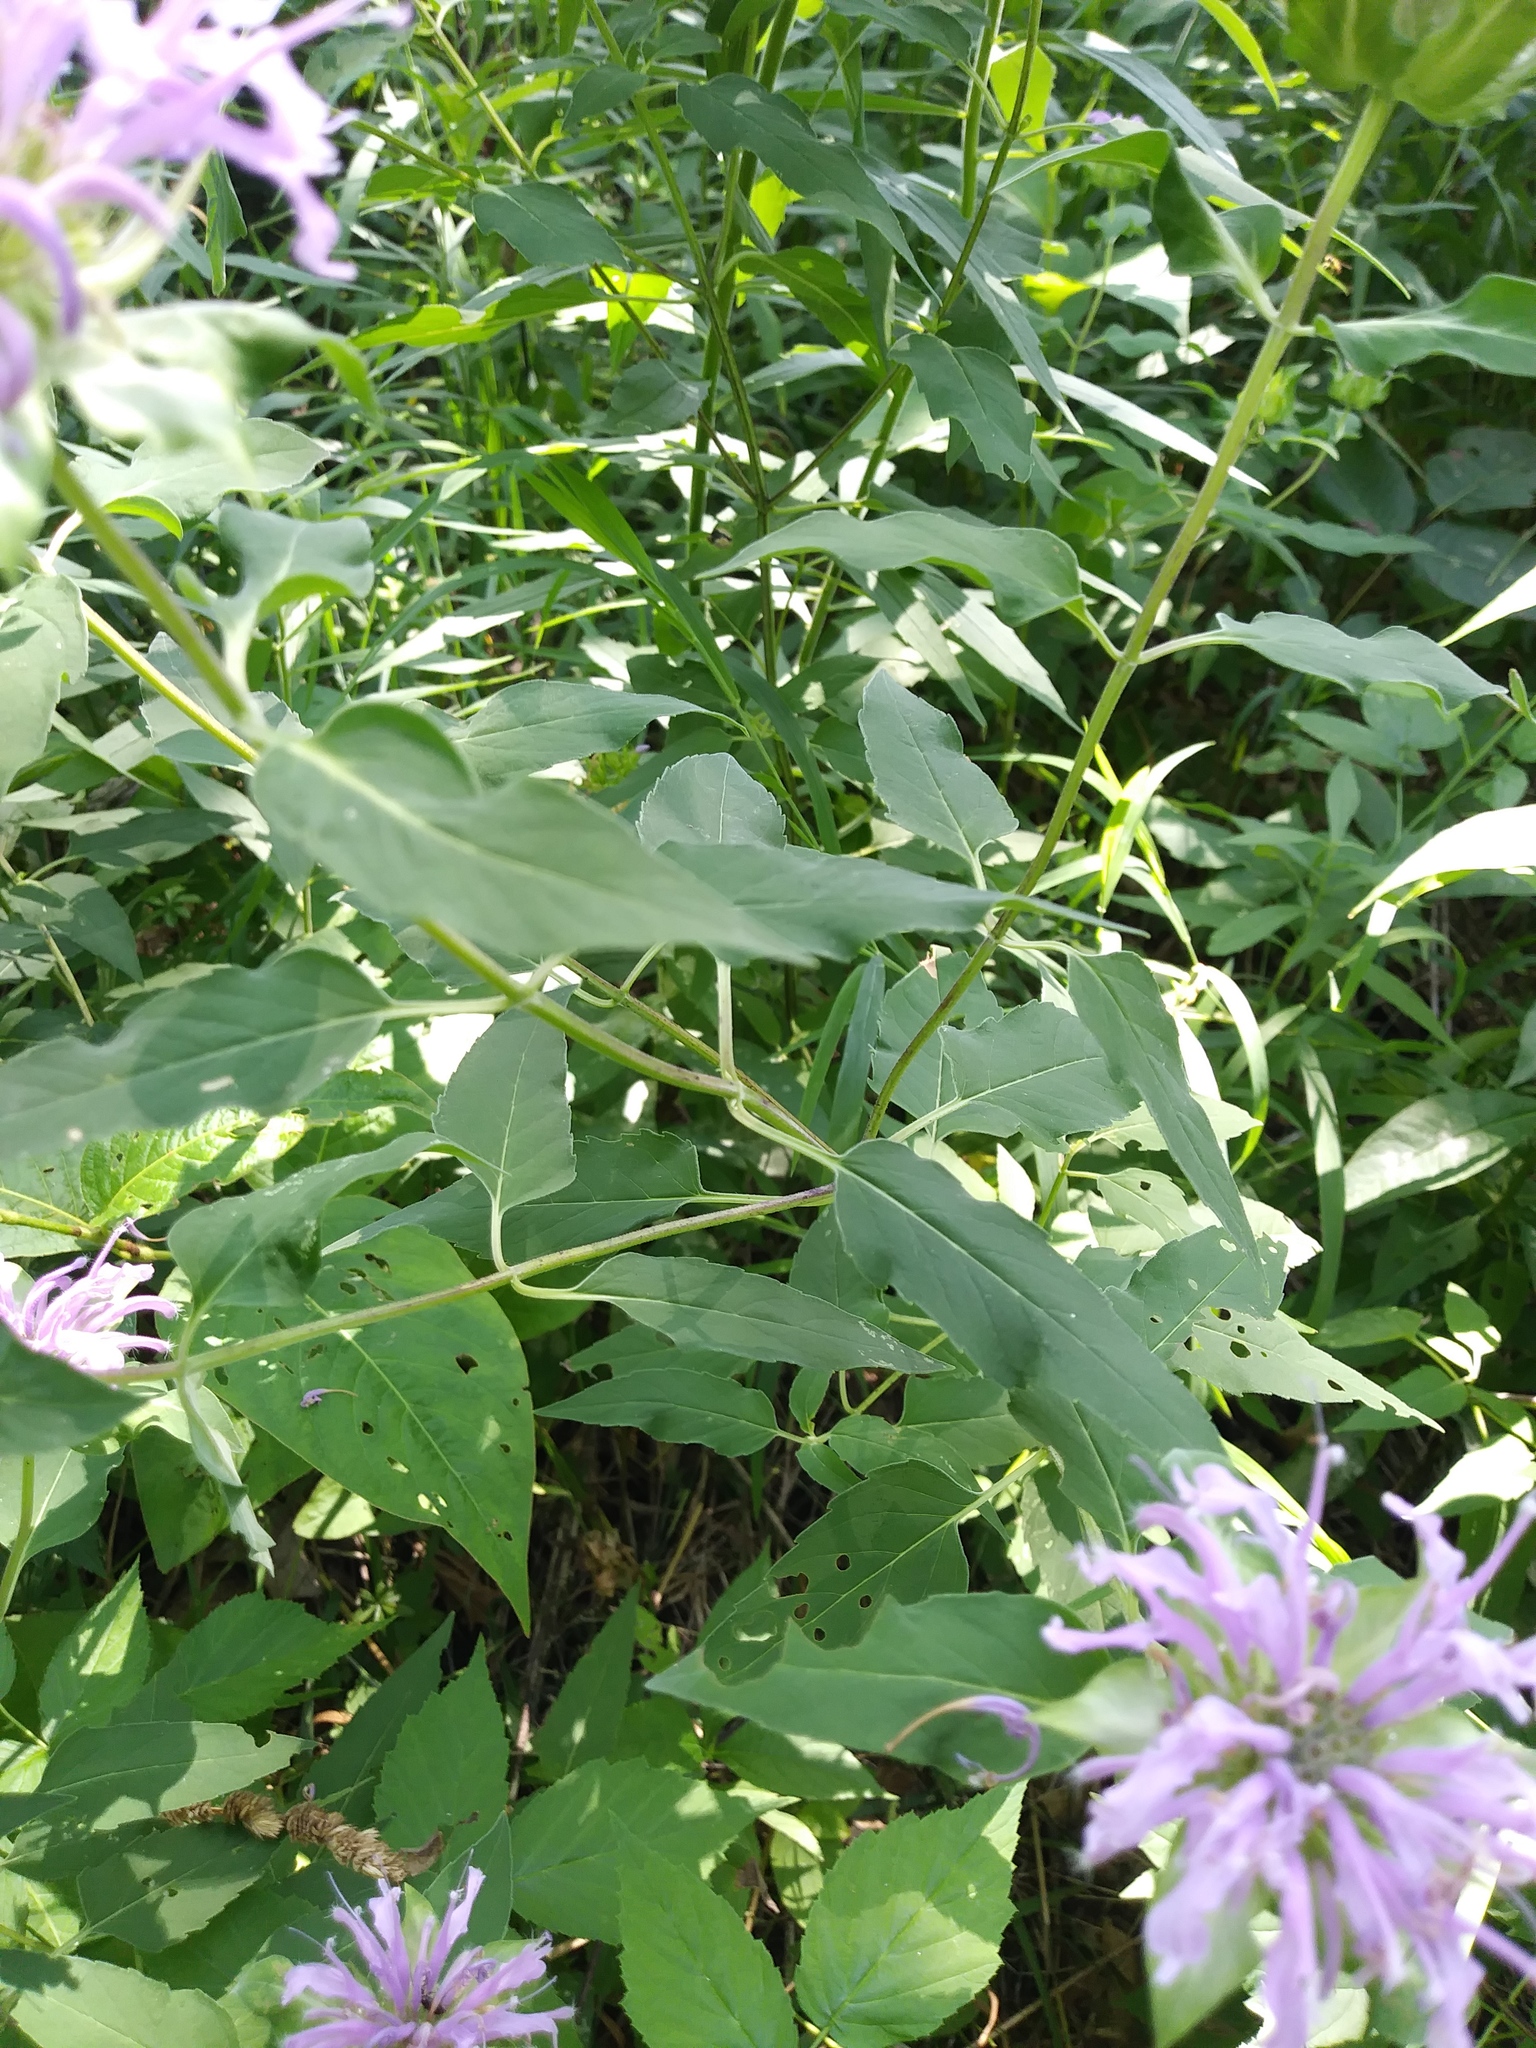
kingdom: Plantae
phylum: Tracheophyta
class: Magnoliopsida
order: Lamiales
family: Lamiaceae
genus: Monarda
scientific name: Monarda fistulosa
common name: Purple beebalm
